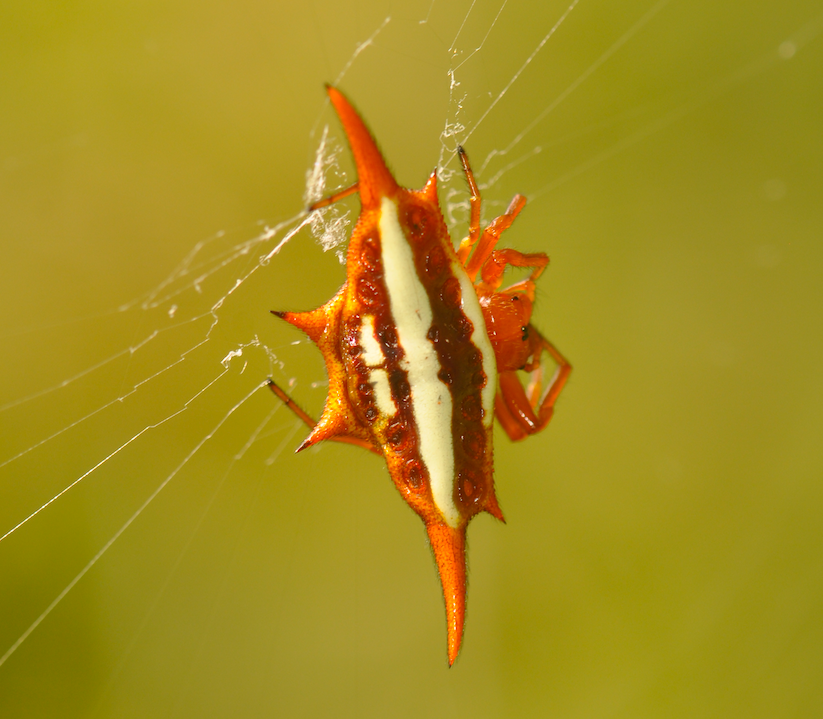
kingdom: Animalia
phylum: Arthropoda
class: Arachnida
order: Araneae
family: Araneidae
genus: Gasteracantha
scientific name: Gasteracantha versicolor
